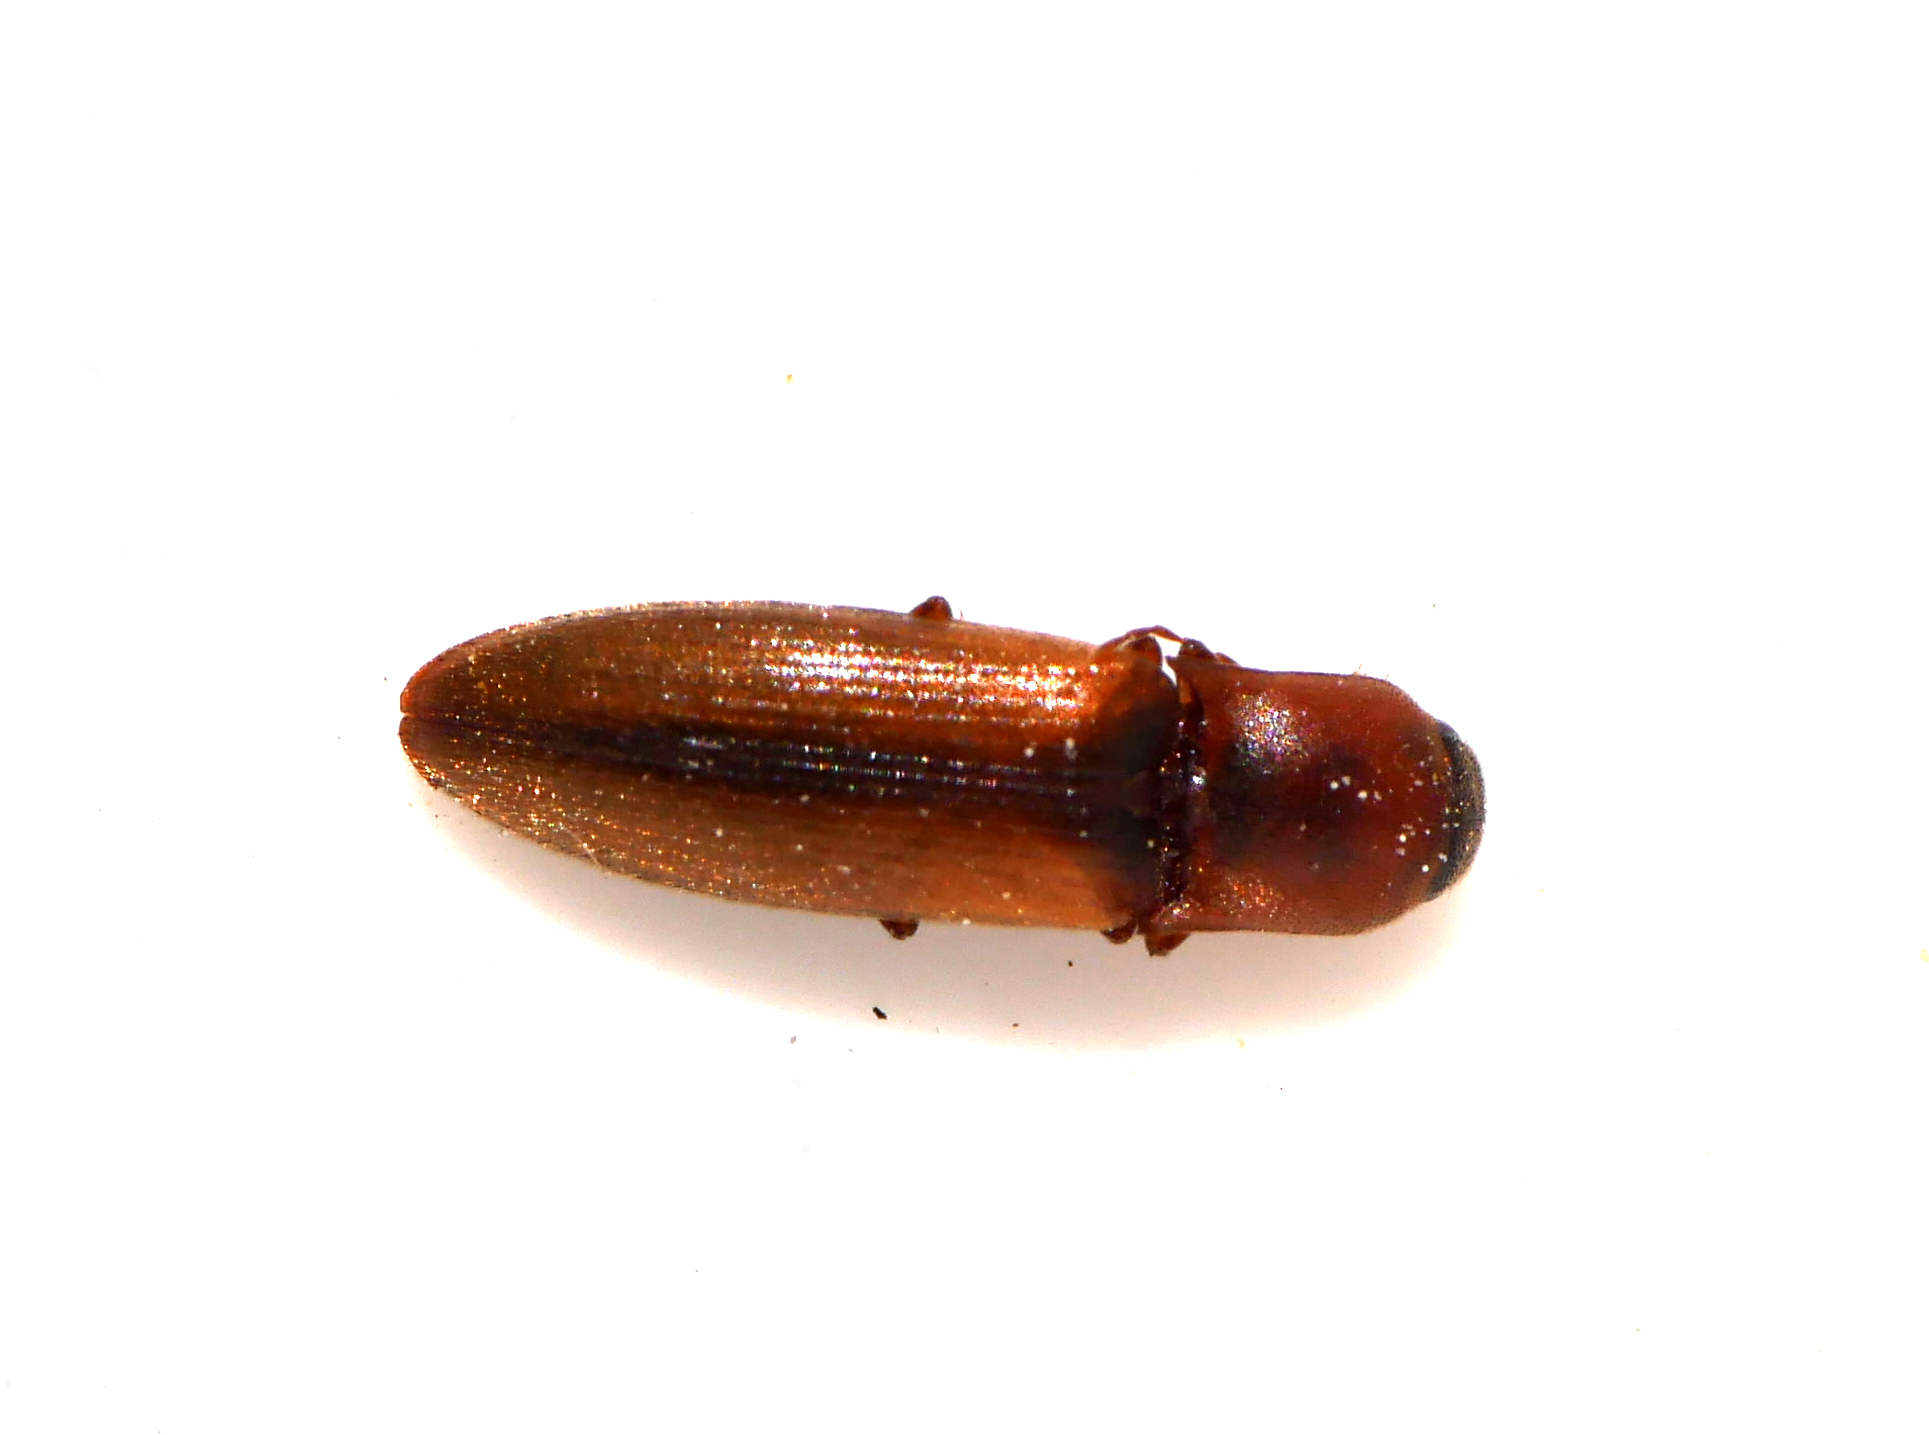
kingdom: Animalia
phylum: Arthropoda
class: Insecta
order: Coleoptera
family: Elateridae
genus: Dalopius
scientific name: Dalopius marginatus
